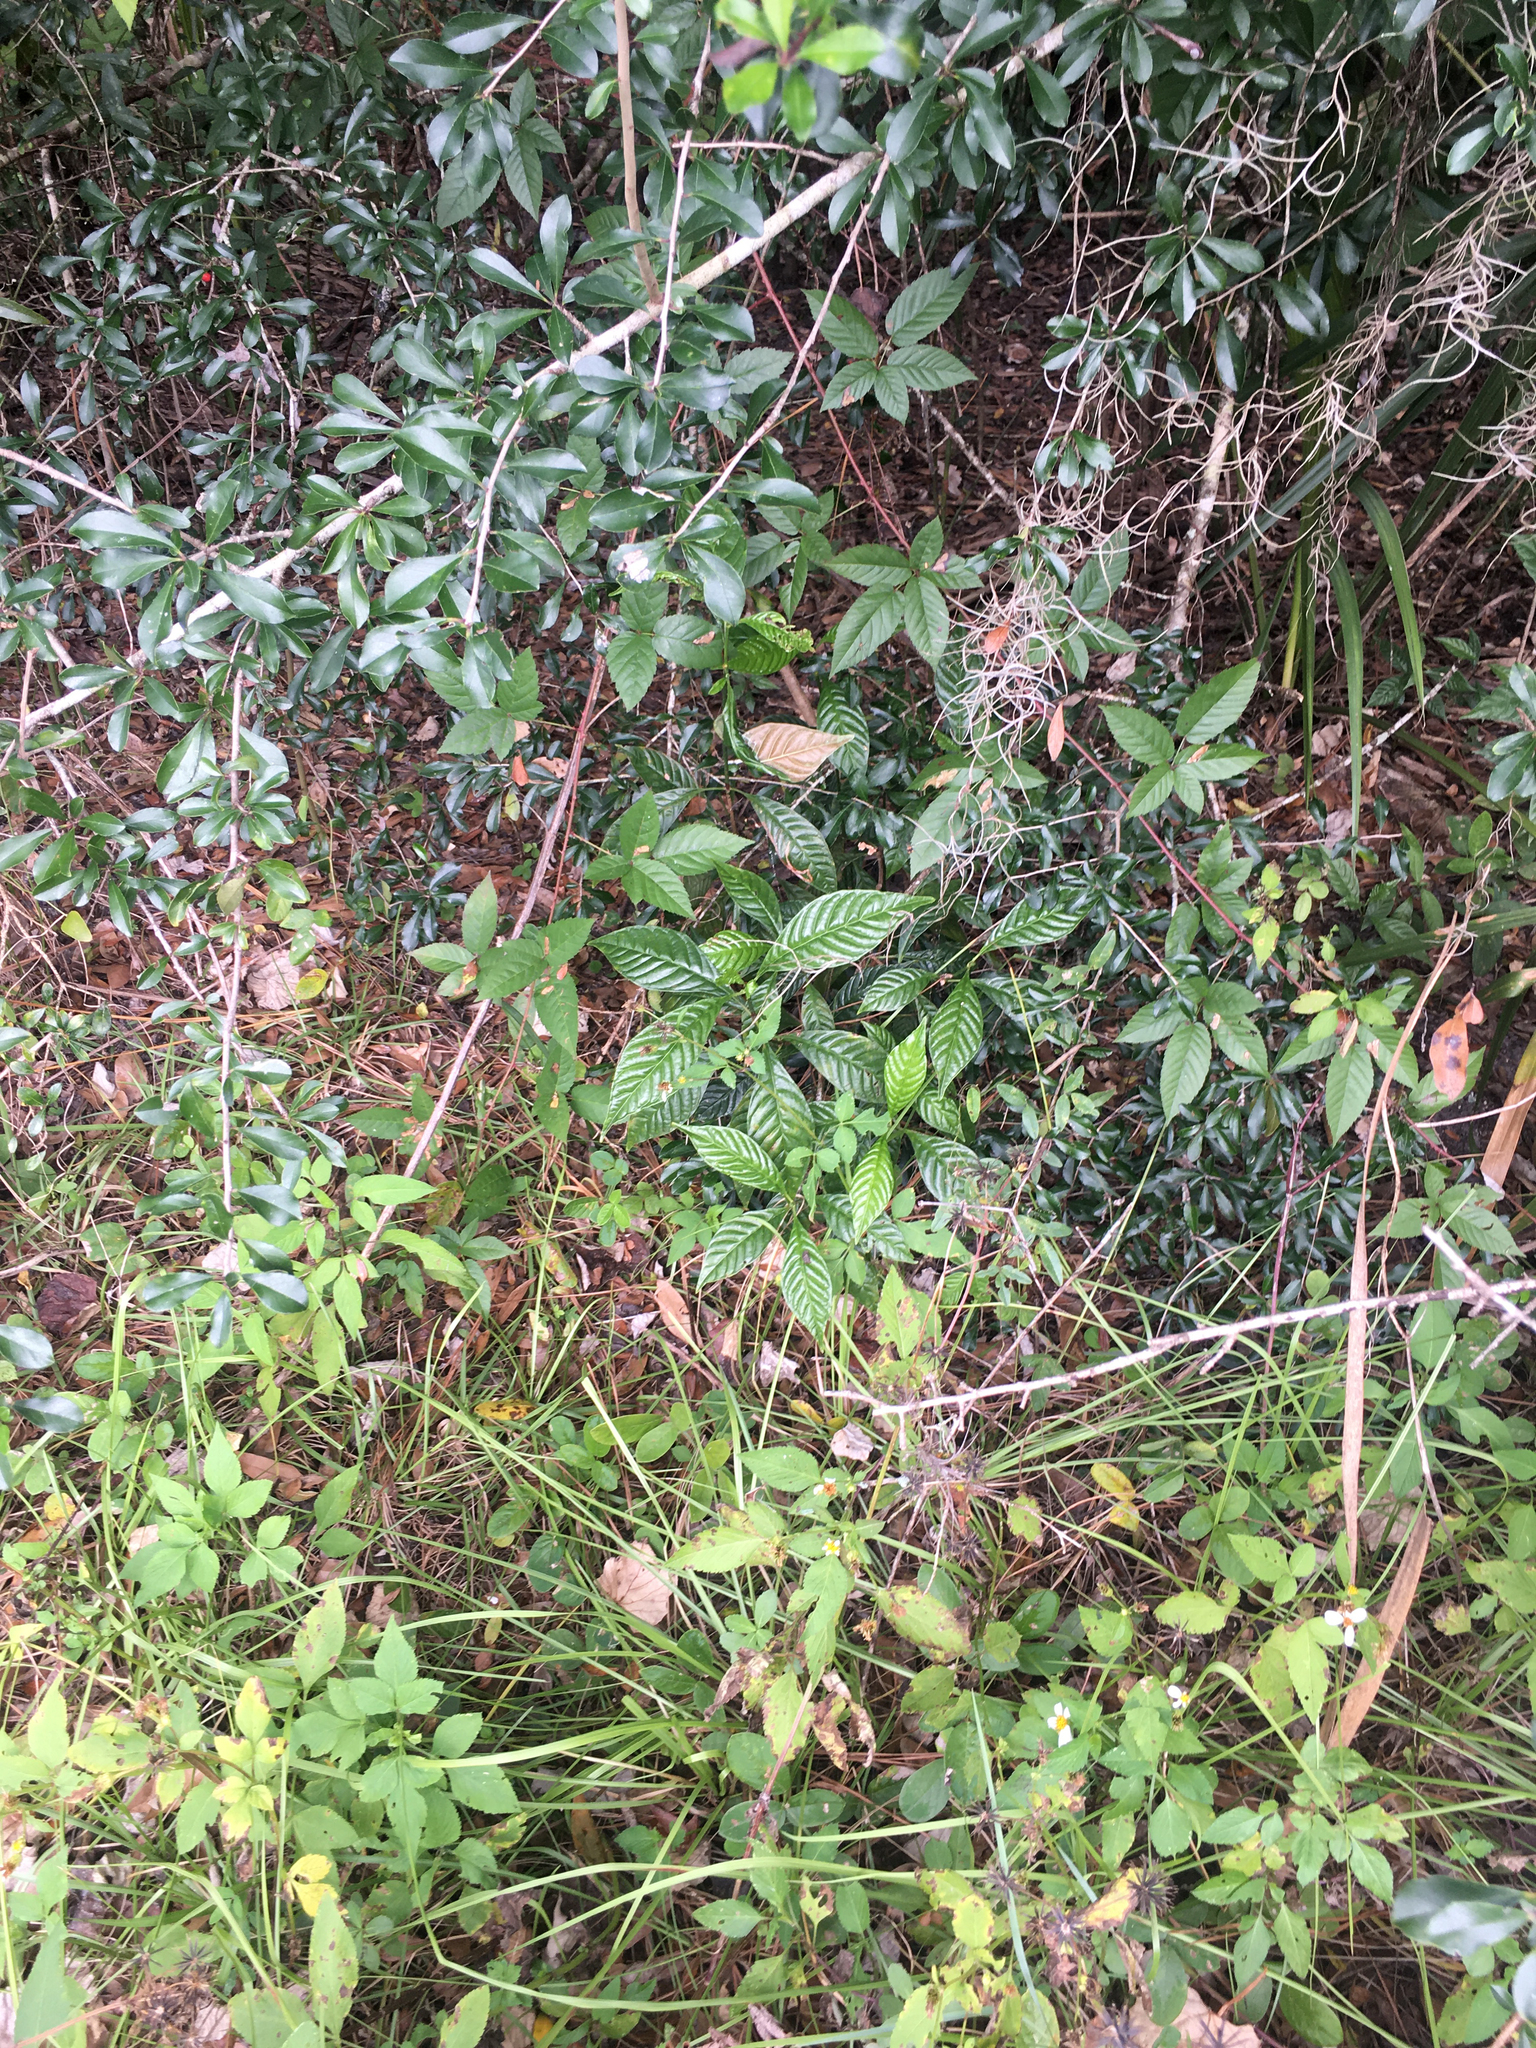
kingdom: Plantae
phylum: Tracheophyta
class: Magnoliopsida
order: Gentianales
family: Rubiaceae
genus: Psychotria
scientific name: Psychotria nervosa
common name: Bastard cankerberry
